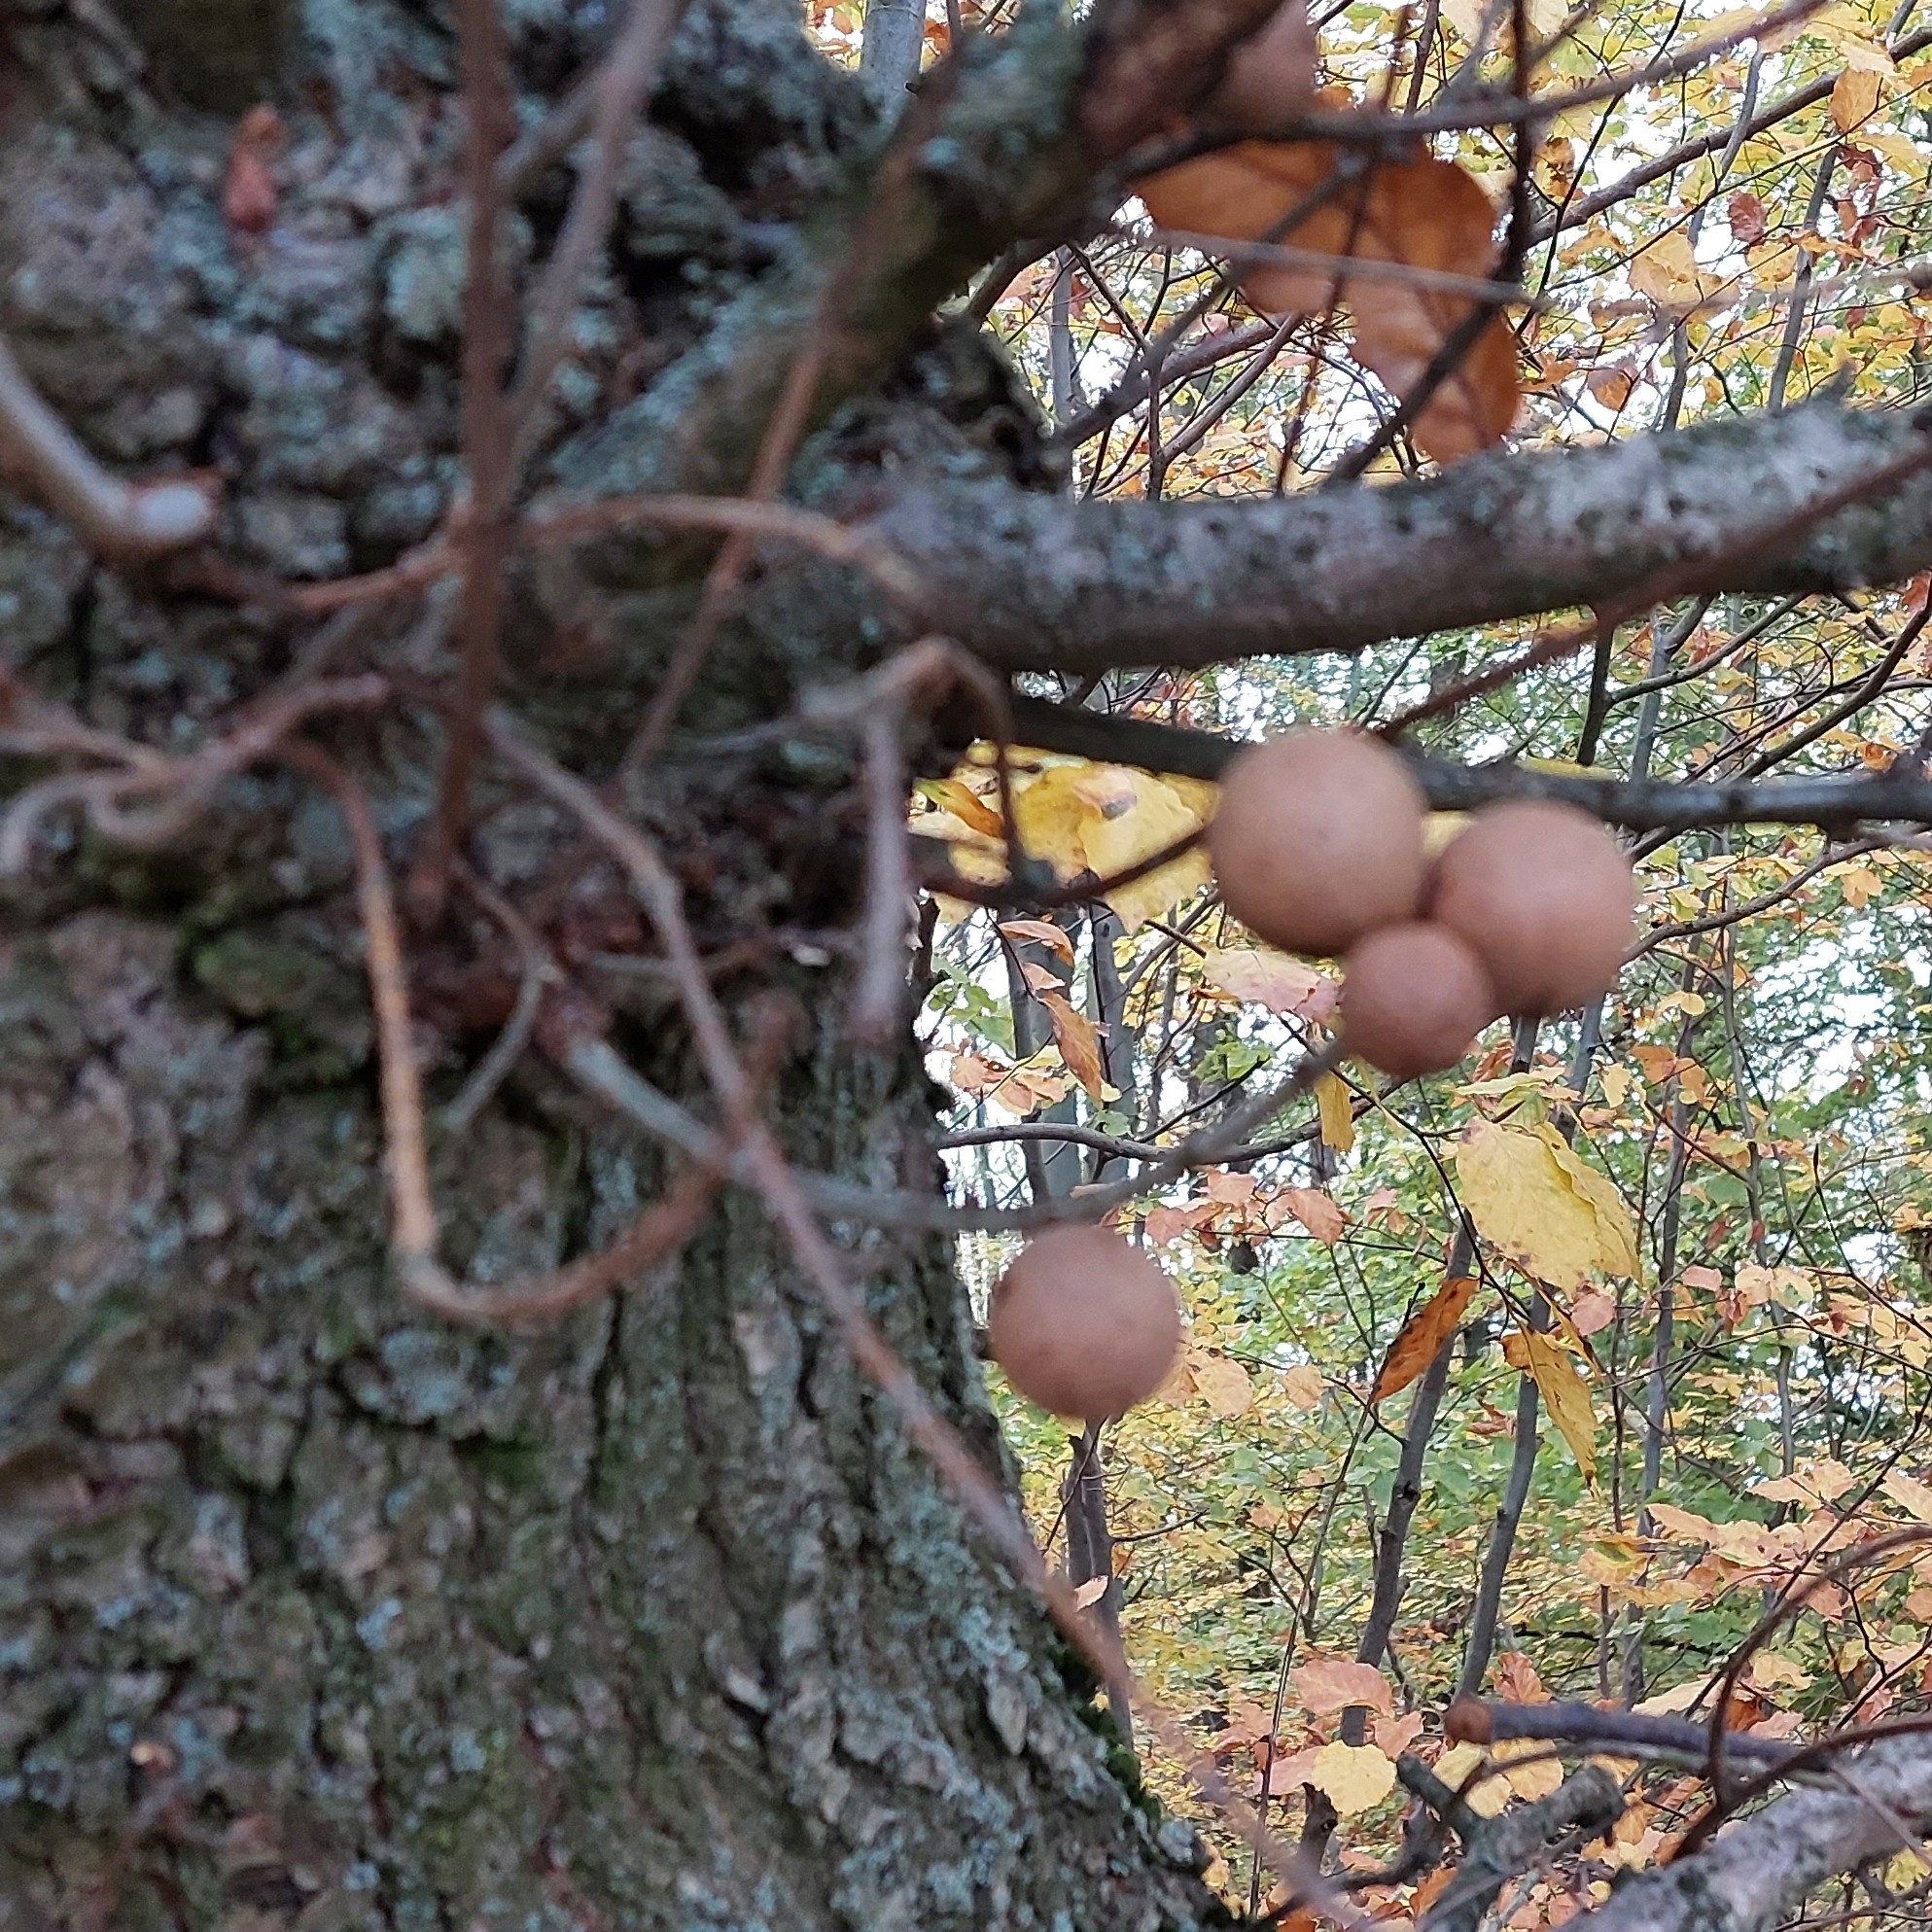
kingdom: Animalia
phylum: Arthropoda
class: Insecta
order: Hymenoptera
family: Cynipidae
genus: Andricus
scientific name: Andricus kollari
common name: Marble gall
